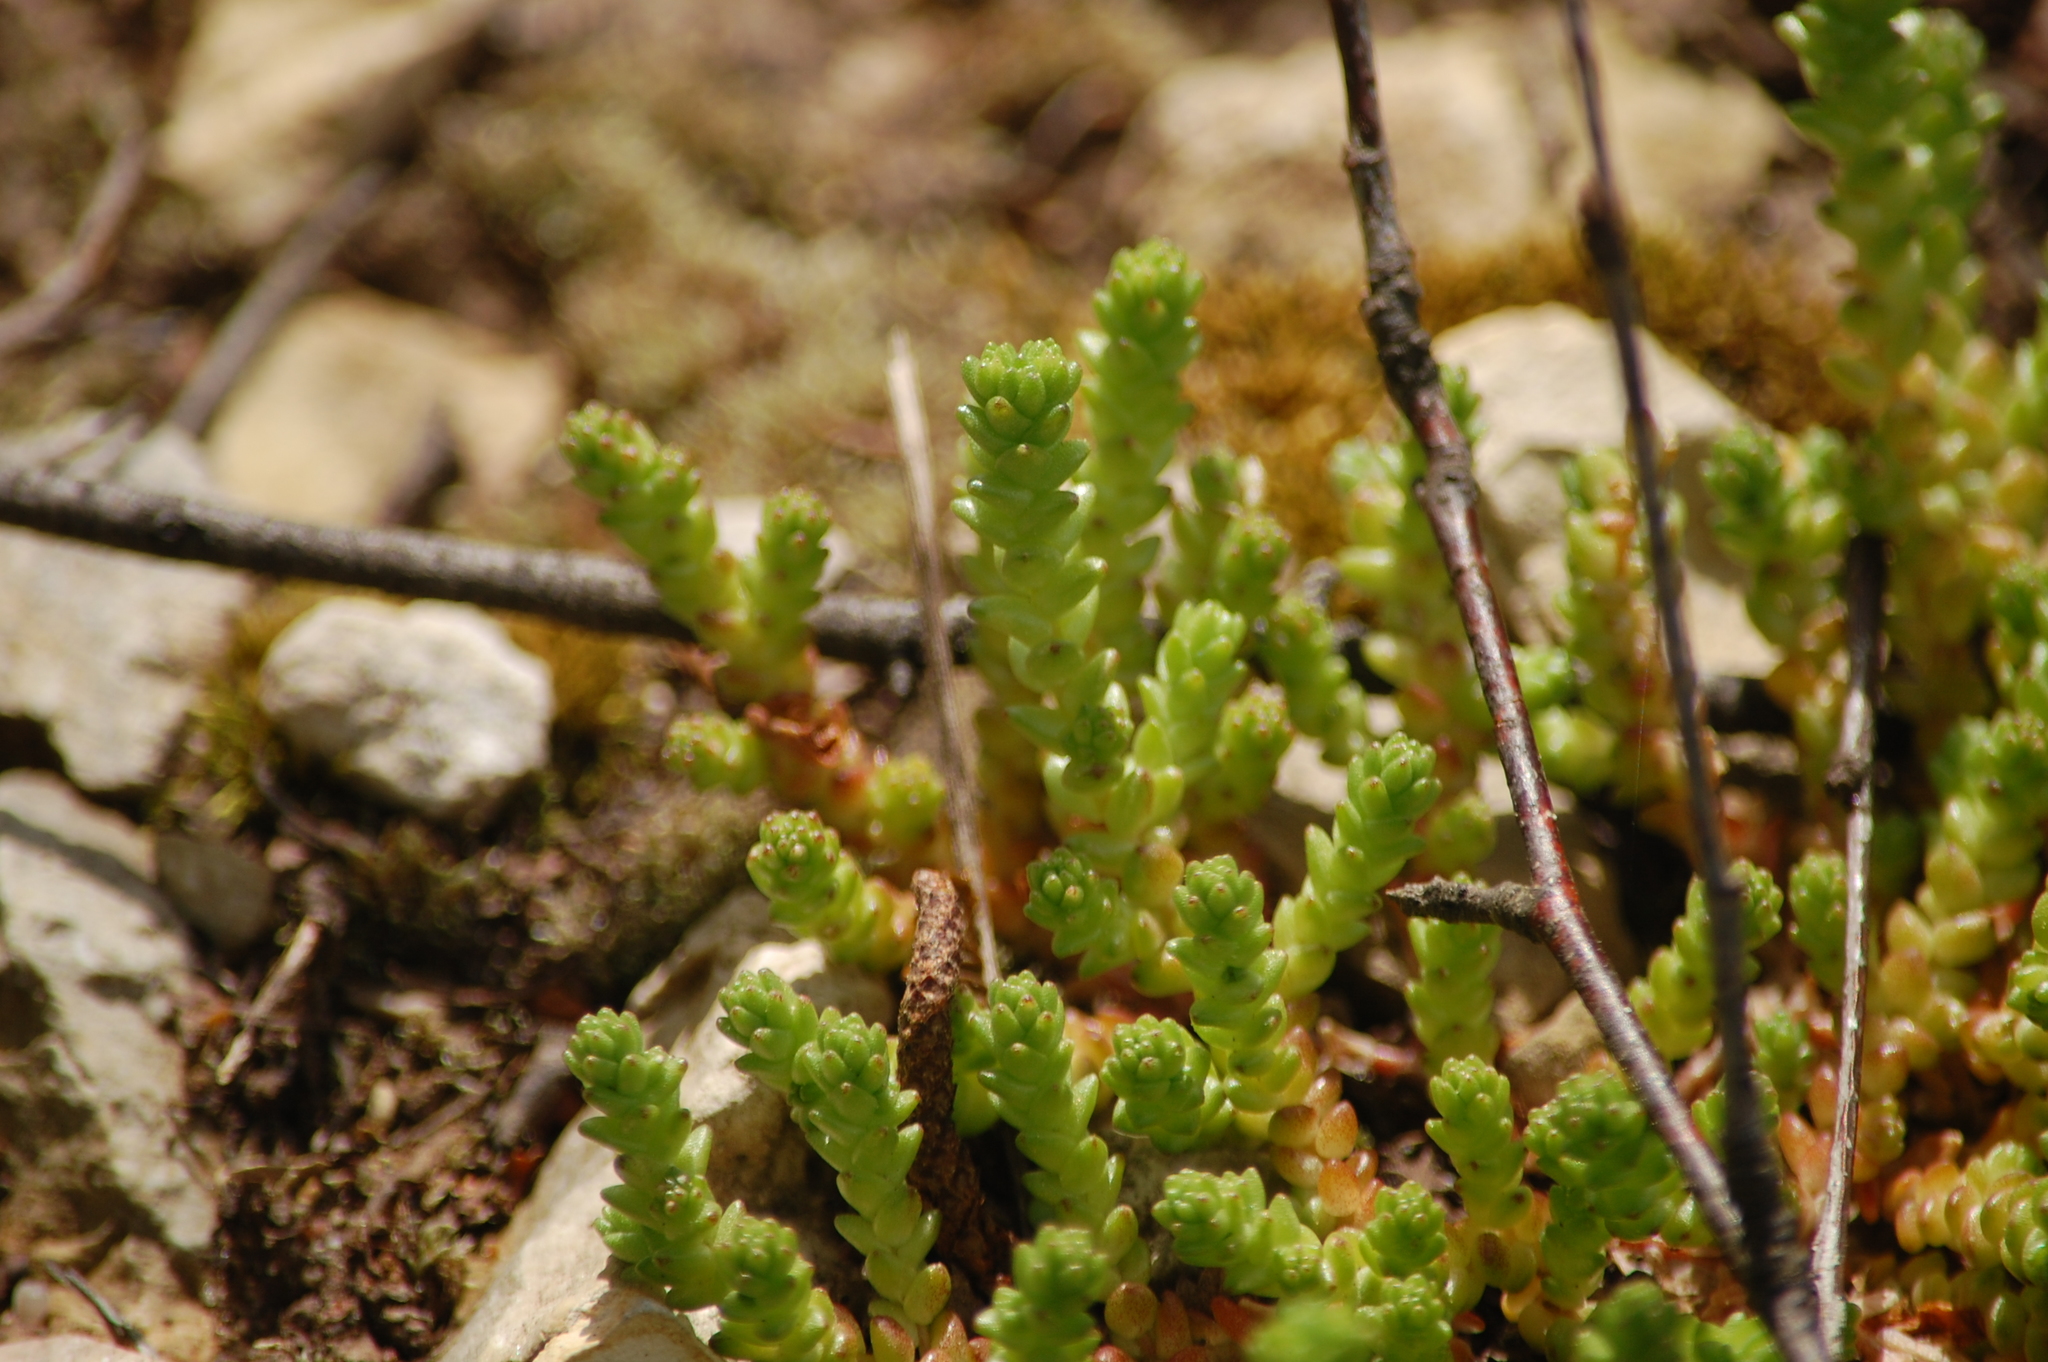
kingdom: Plantae
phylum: Tracheophyta
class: Magnoliopsida
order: Saxifragales
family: Crassulaceae
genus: Sedum
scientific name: Sedum acre
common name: Biting stonecrop
